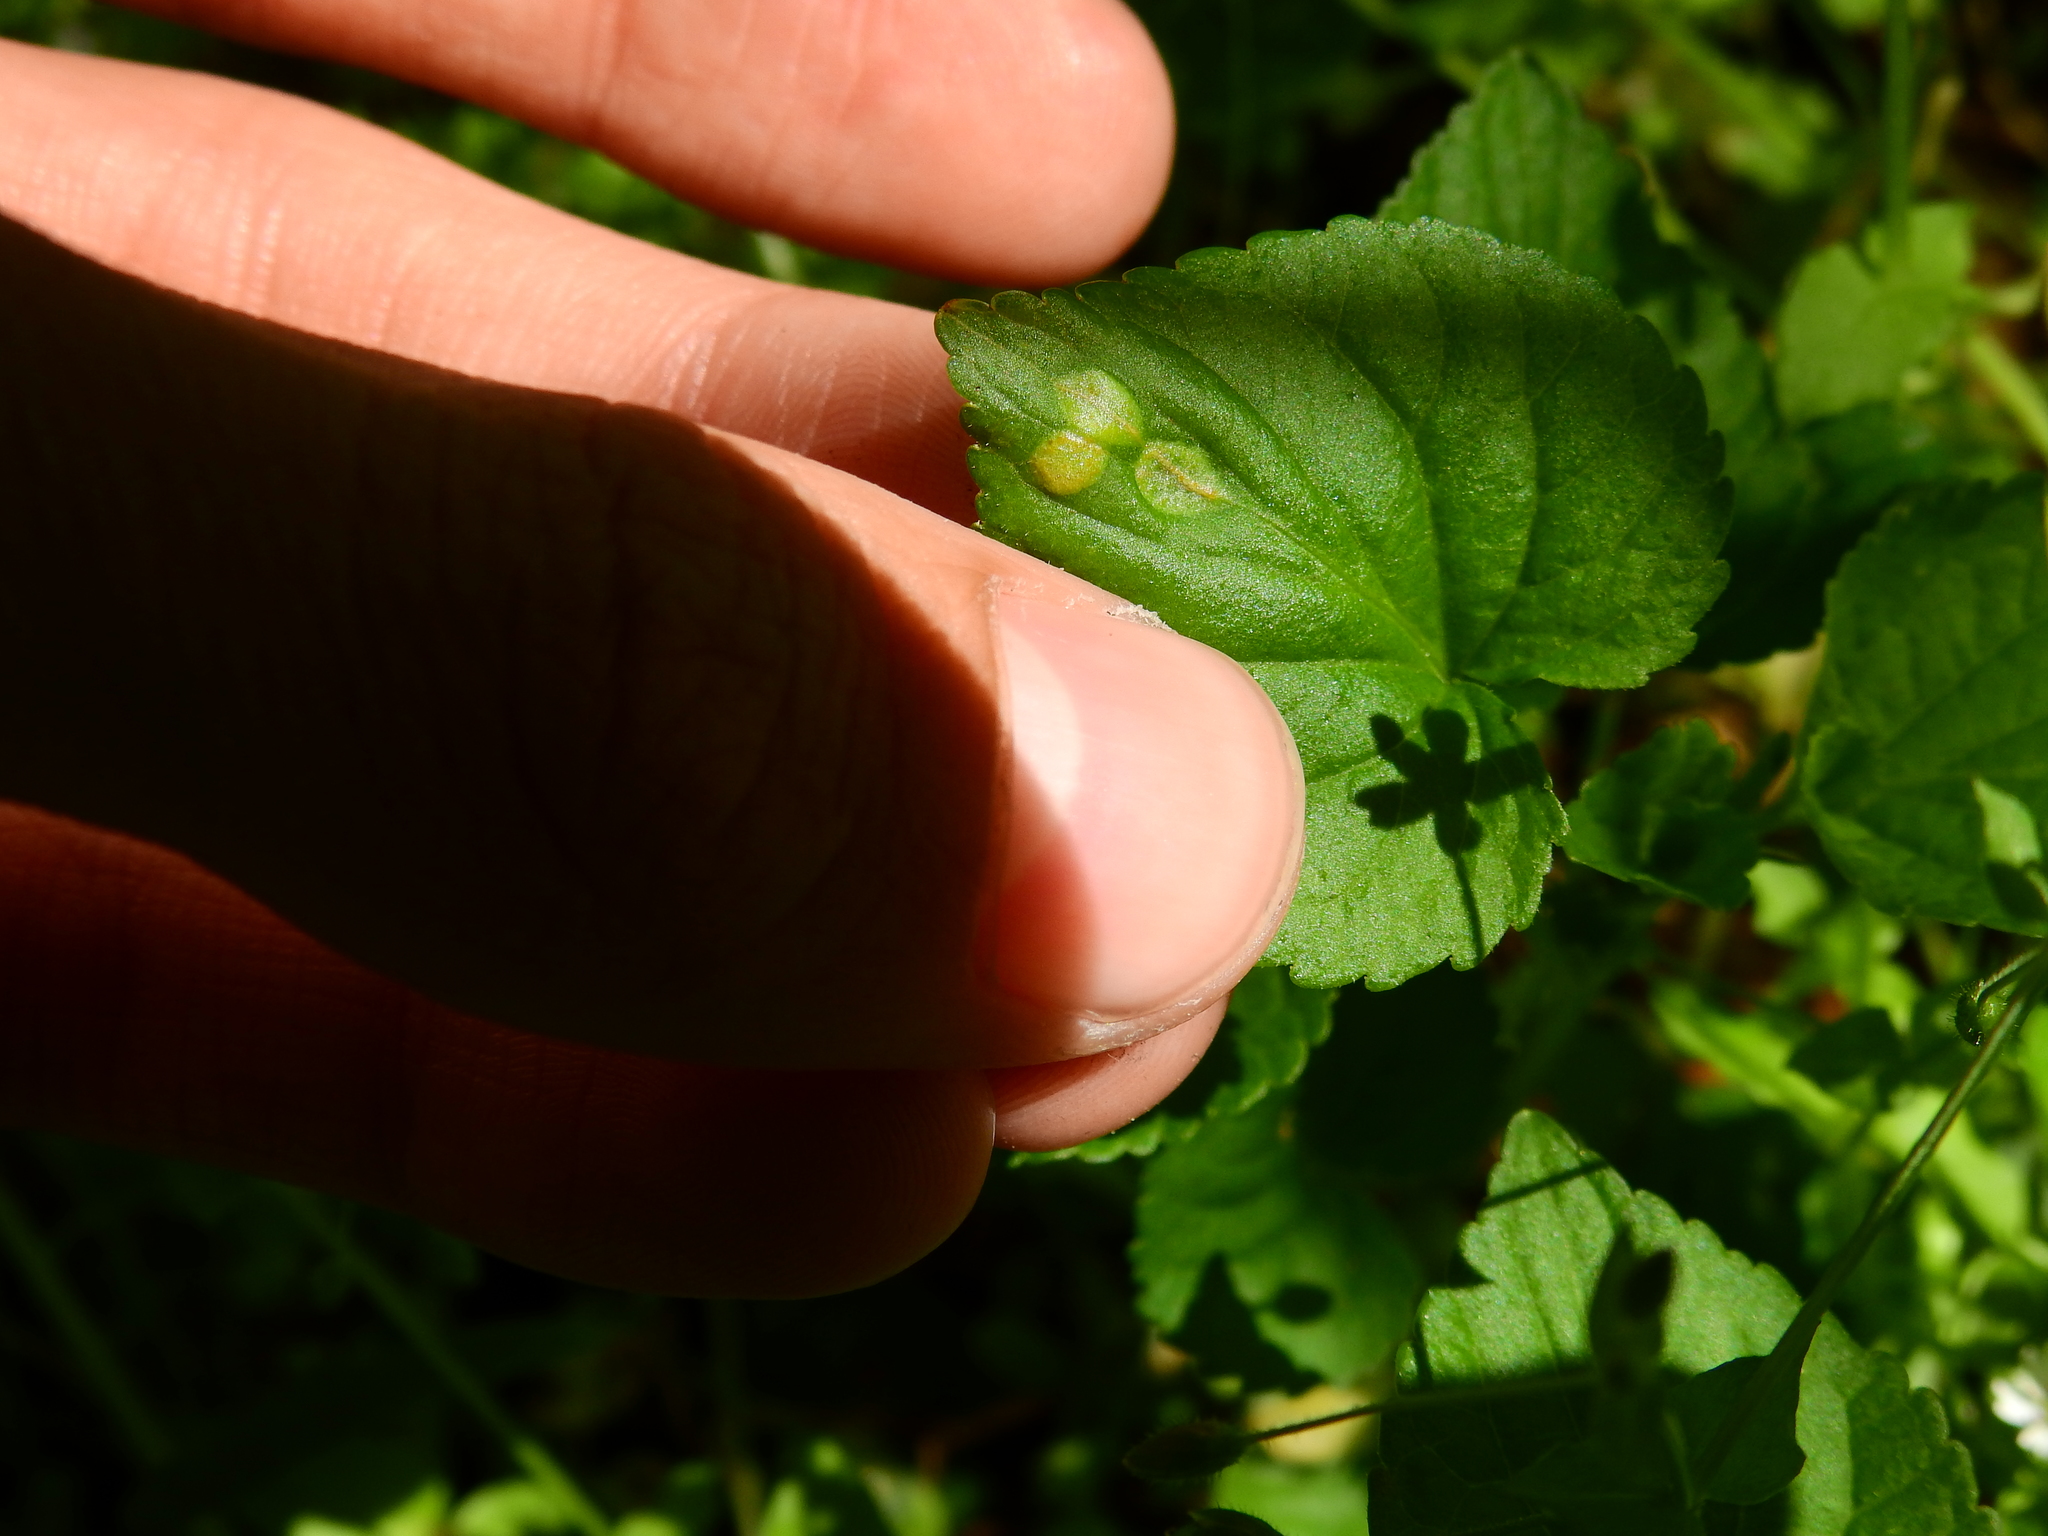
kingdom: Fungi
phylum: Basidiomycota
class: Pucciniomycetes
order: Pucciniales
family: Pucciniaceae
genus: Puccinia
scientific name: Puccinia violae
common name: Violet rust
